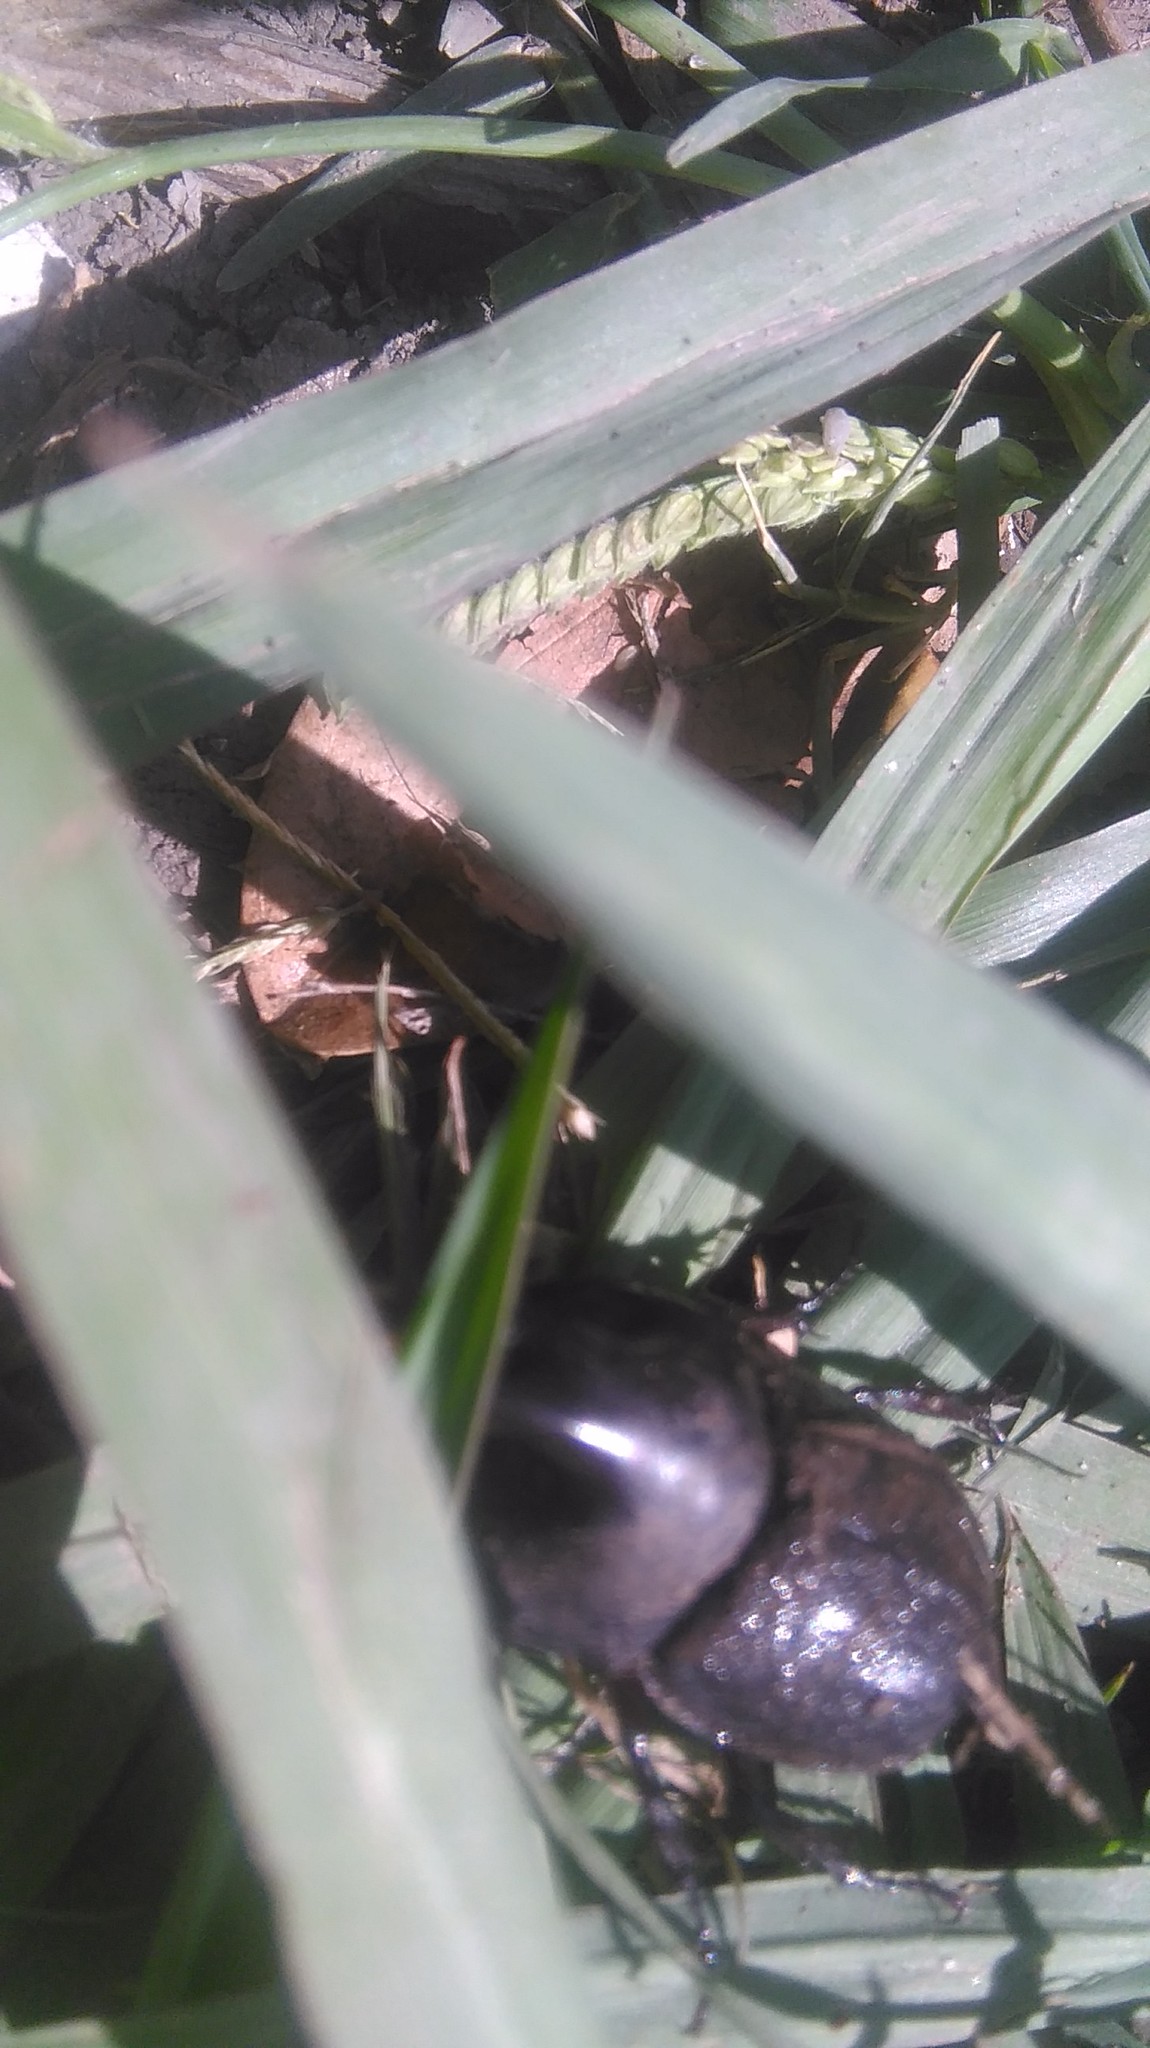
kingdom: Animalia
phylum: Arthropoda
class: Insecta
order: Coleoptera
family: Scarabaeidae
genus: Diloboderus
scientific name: Diloboderus abderus
